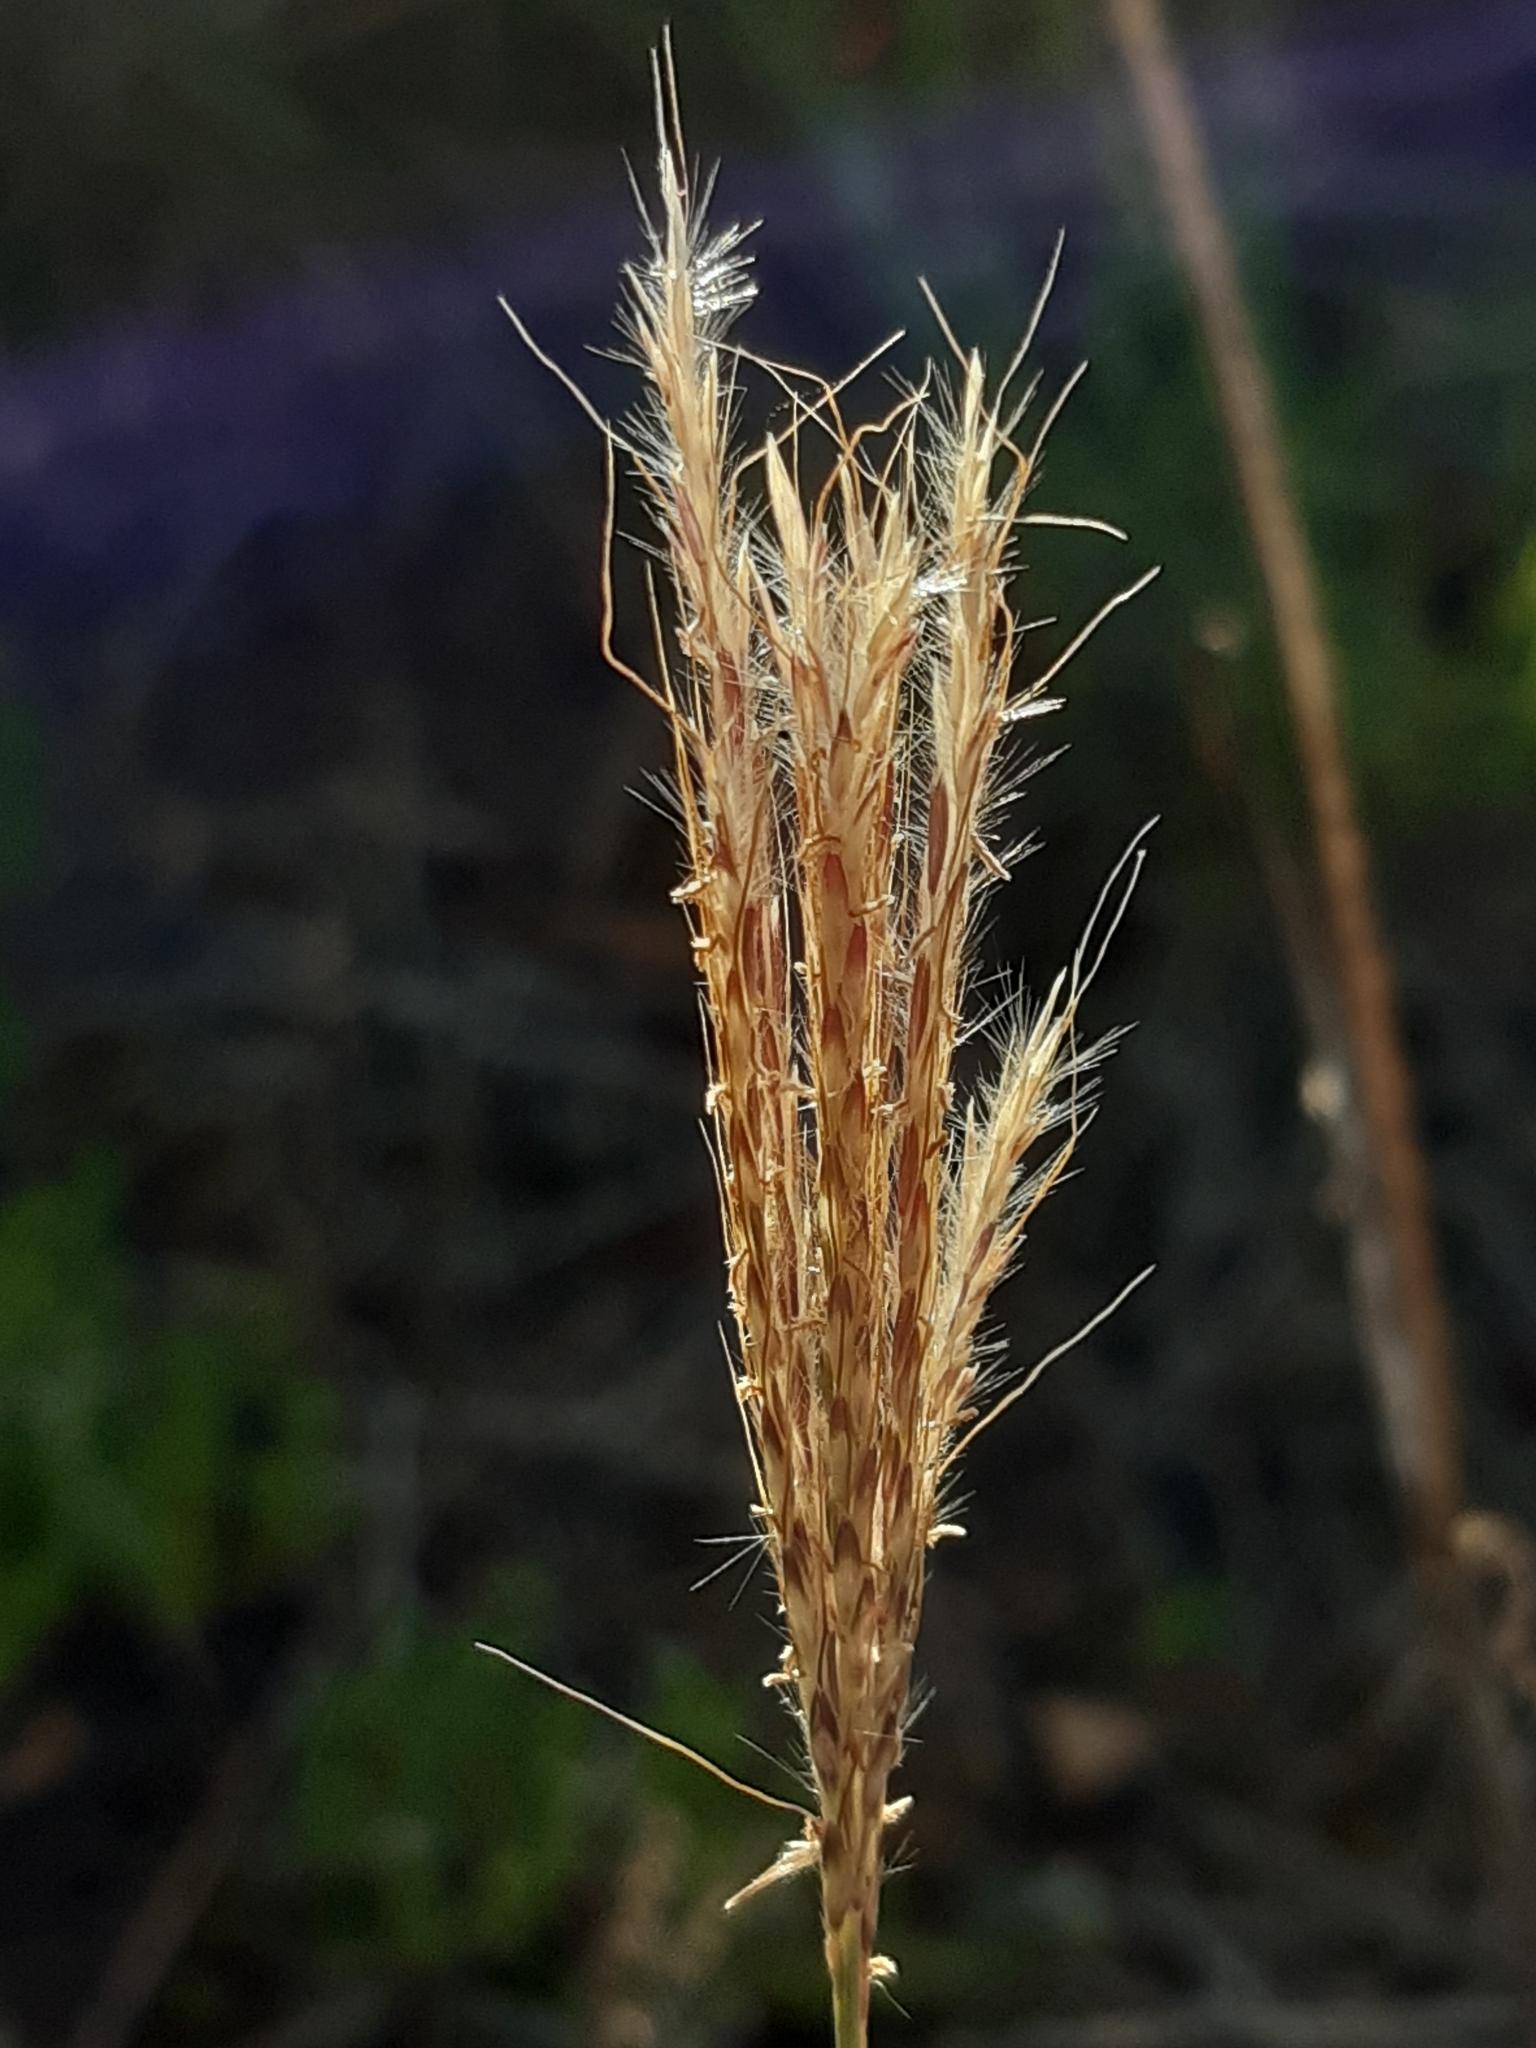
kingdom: Plantae
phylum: Tracheophyta
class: Liliopsida
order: Poales
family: Poaceae
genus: Bothriochloa
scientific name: Bothriochloa ischaemum
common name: Yellow bluestem
